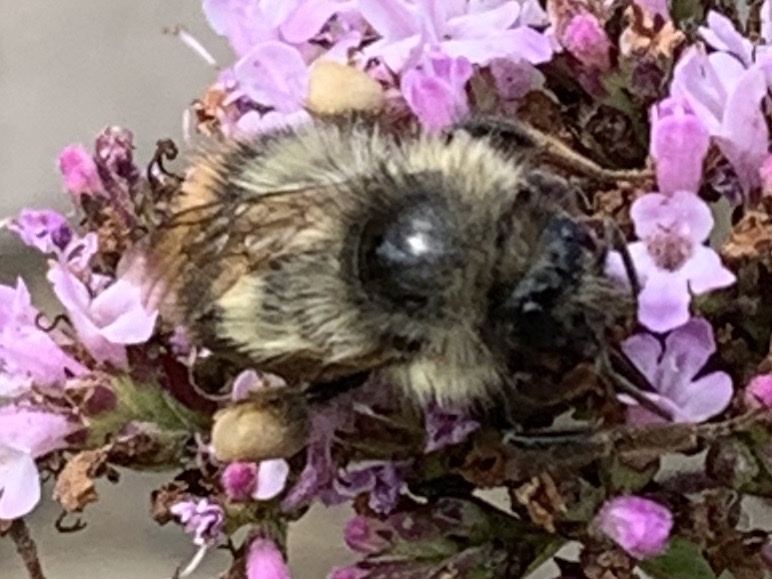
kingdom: Animalia
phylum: Arthropoda
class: Insecta
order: Hymenoptera
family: Apidae
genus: Bombus
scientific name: Bombus mixtus
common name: Fuzzy-horned bumble bee
